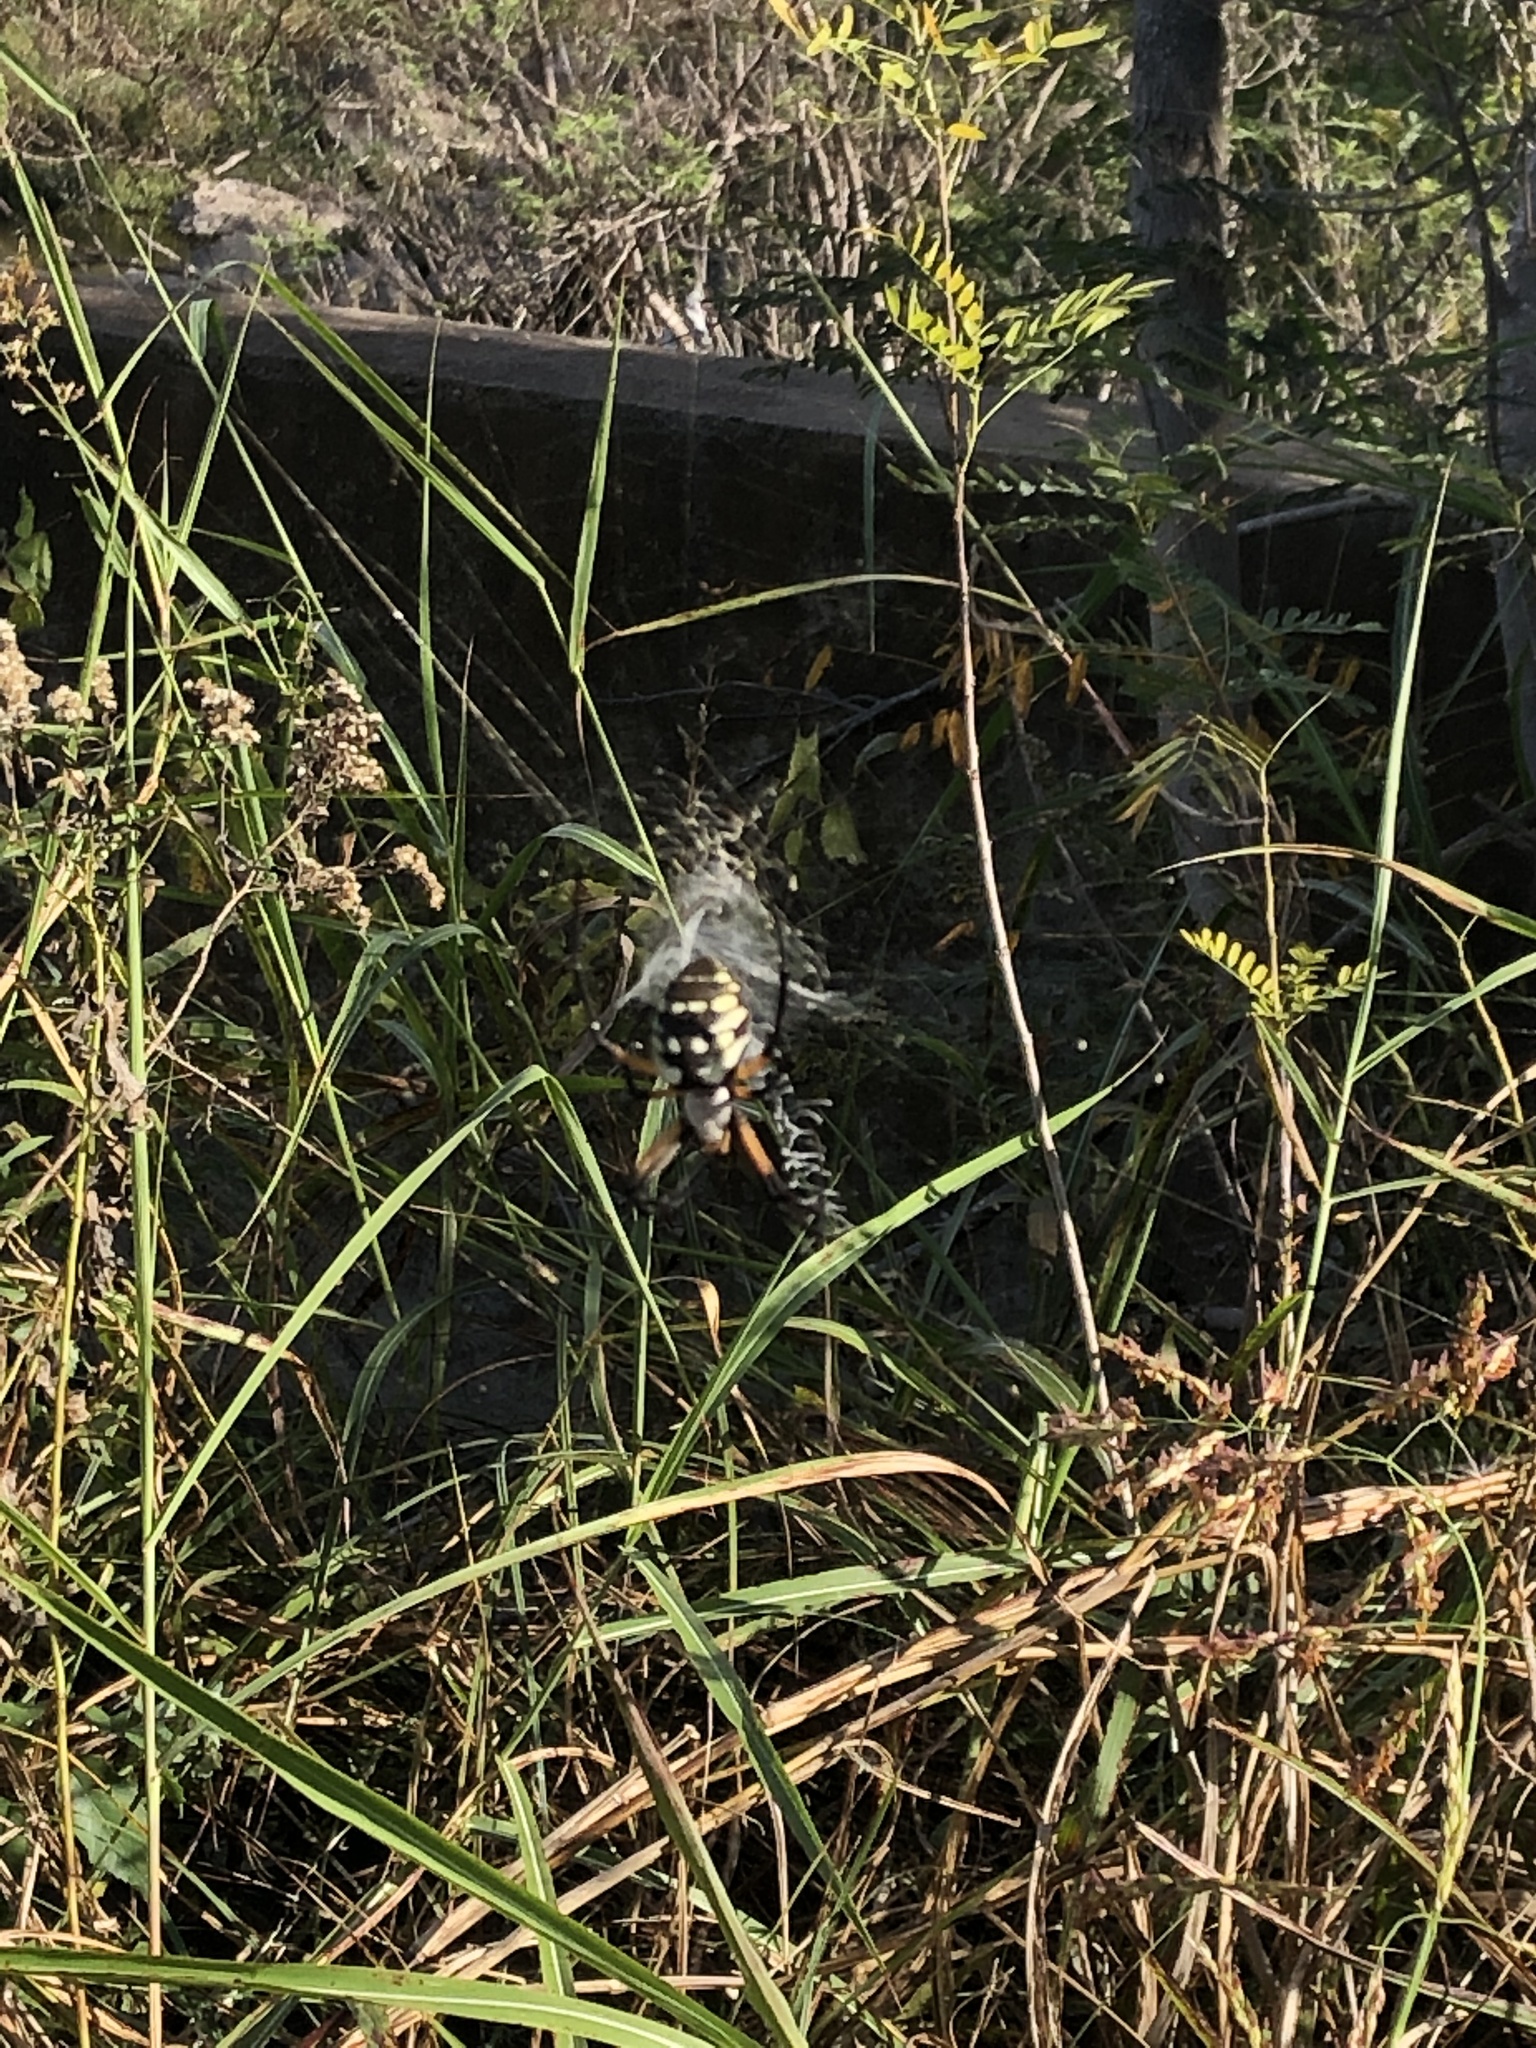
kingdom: Animalia
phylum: Arthropoda
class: Arachnida
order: Araneae
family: Araneidae
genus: Argiope
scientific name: Argiope aurantia
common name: Orb weavers
